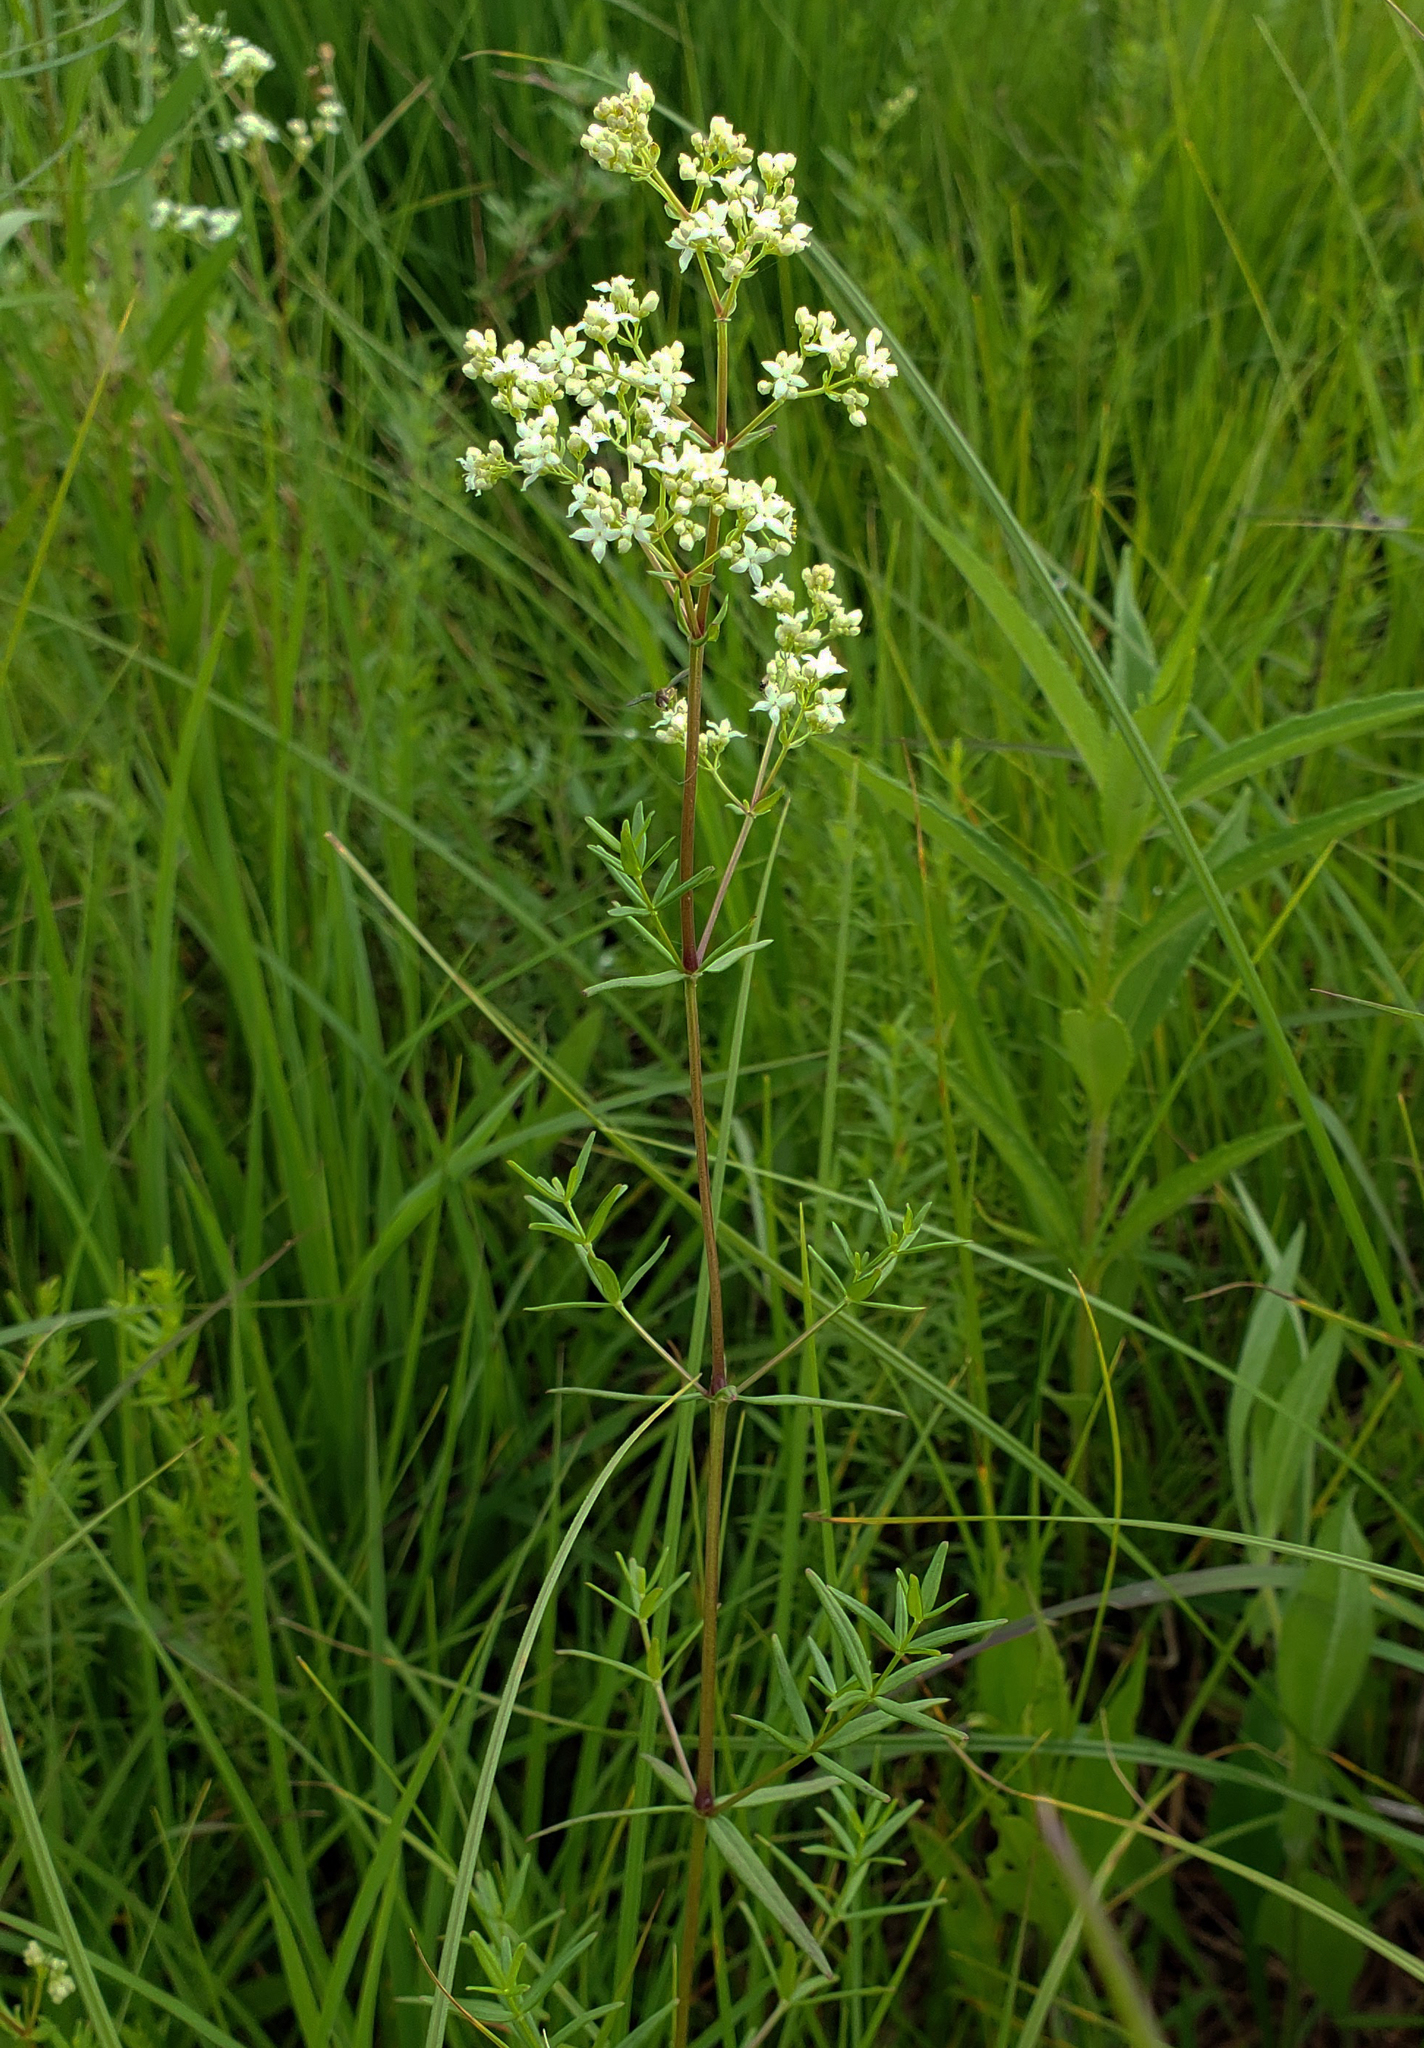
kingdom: Plantae
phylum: Tracheophyta
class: Magnoliopsida
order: Gentianales
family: Rubiaceae
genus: Galium
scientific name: Galium boreale
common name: Northern bedstraw
